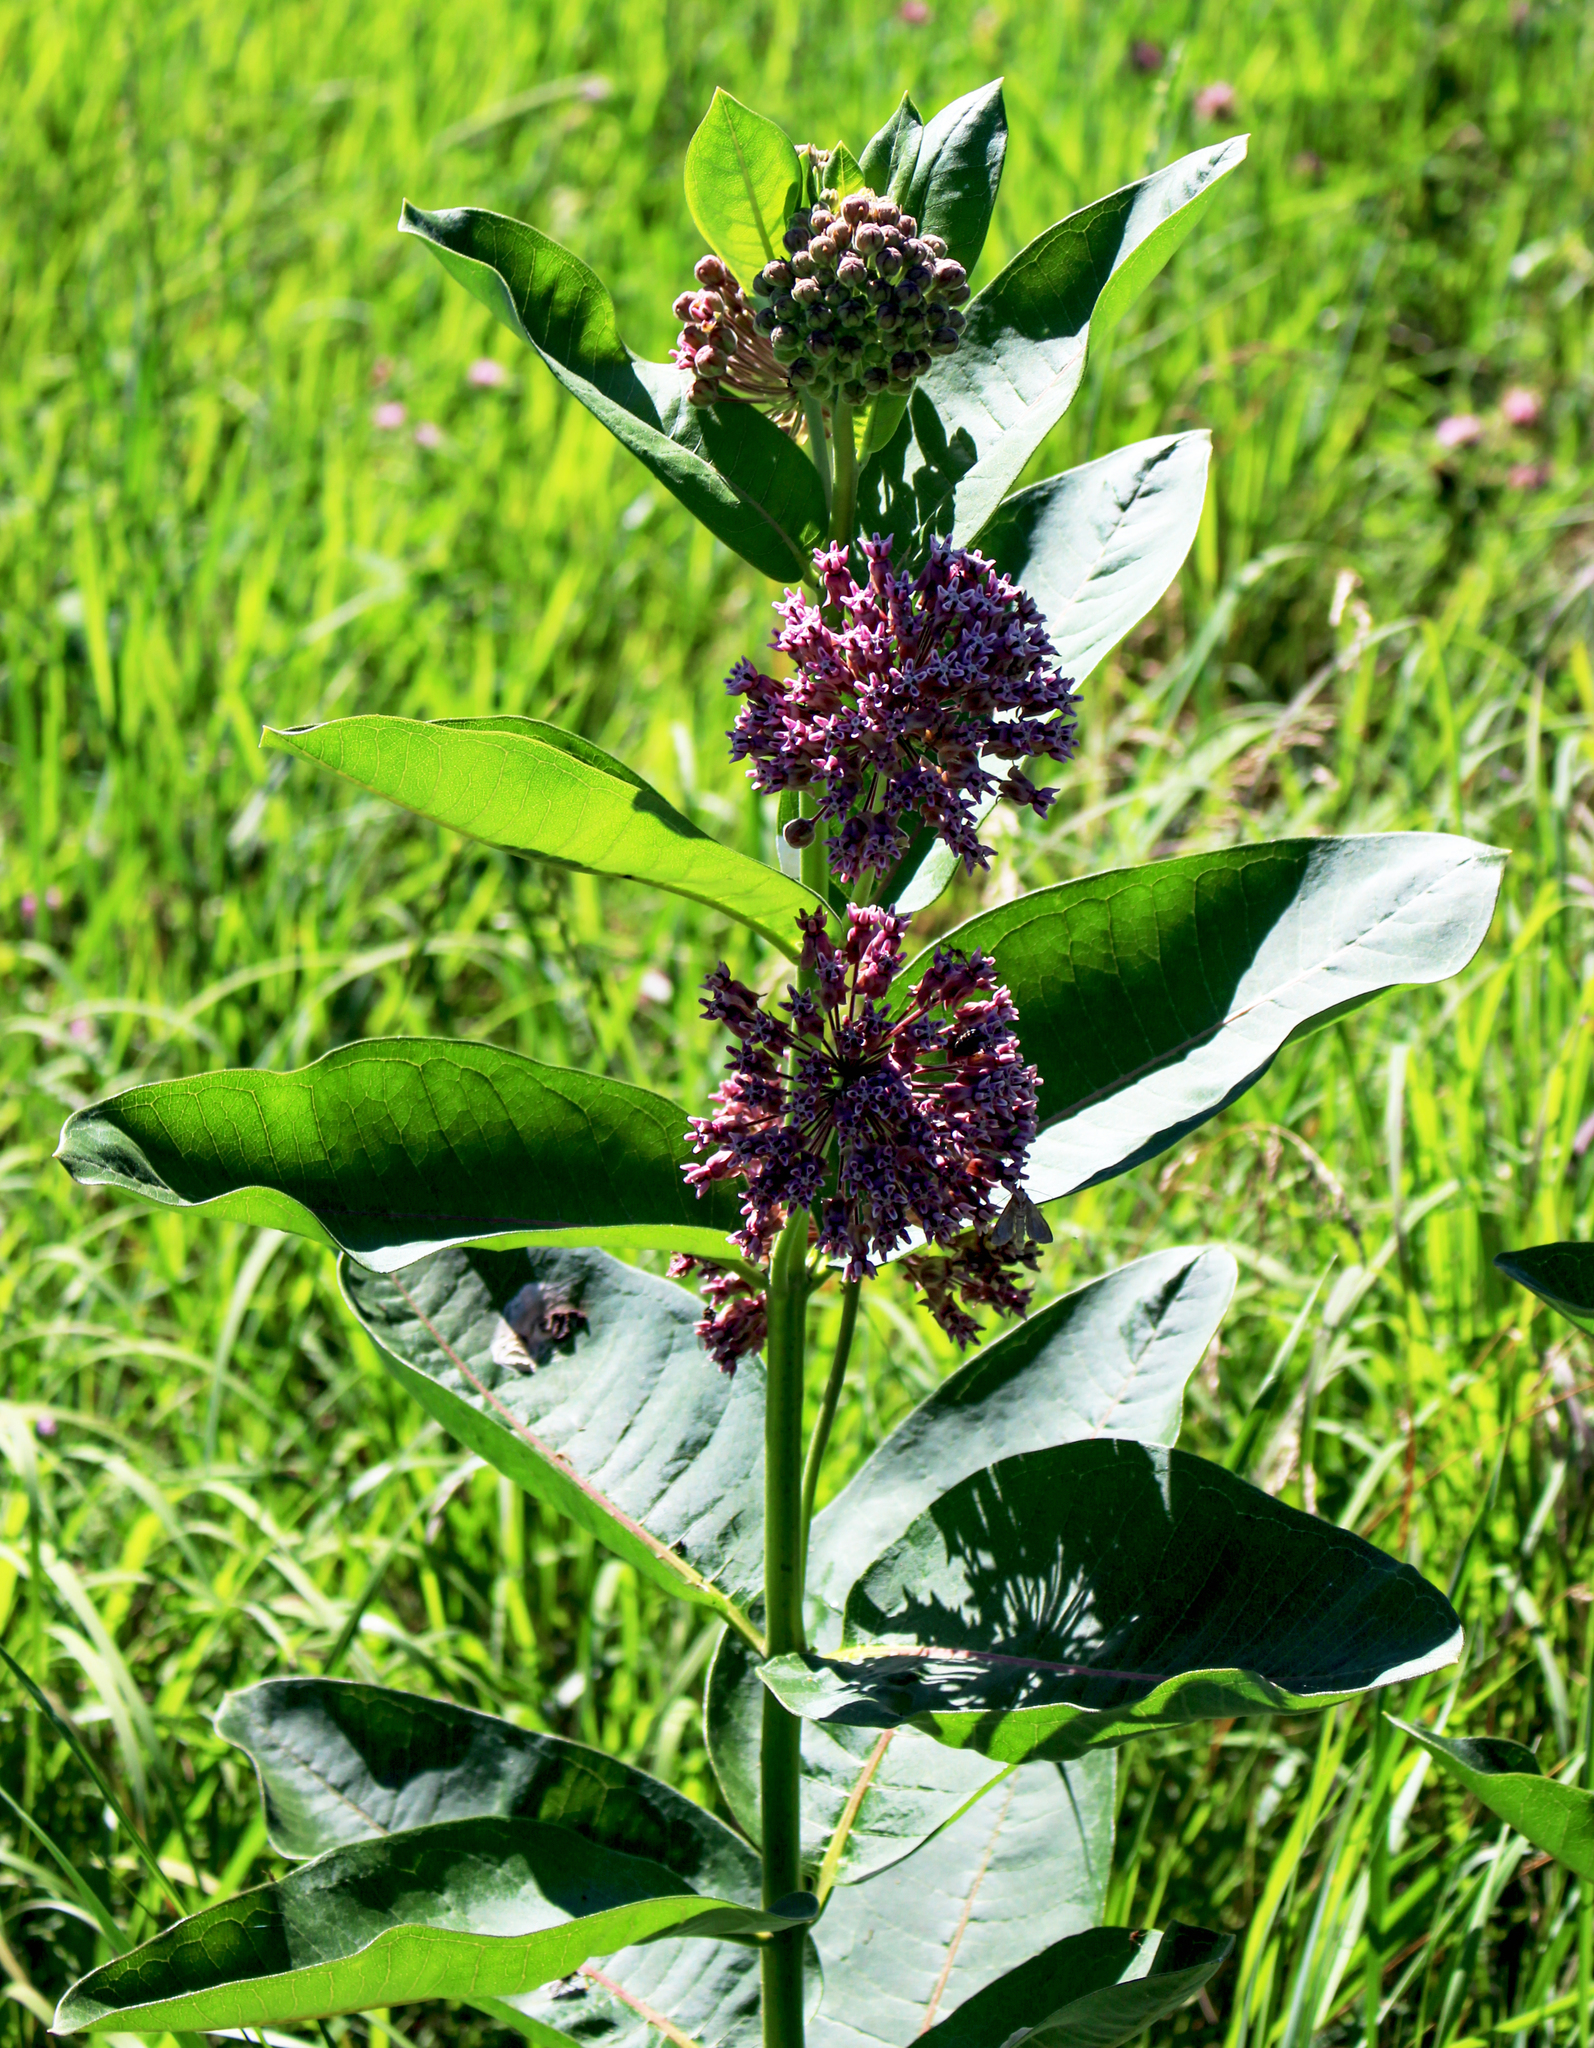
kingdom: Plantae
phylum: Tracheophyta
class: Magnoliopsida
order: Gentianales
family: Apocynaceae
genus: Asclepias
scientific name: Asclepias syriaca
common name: Common milkweed
